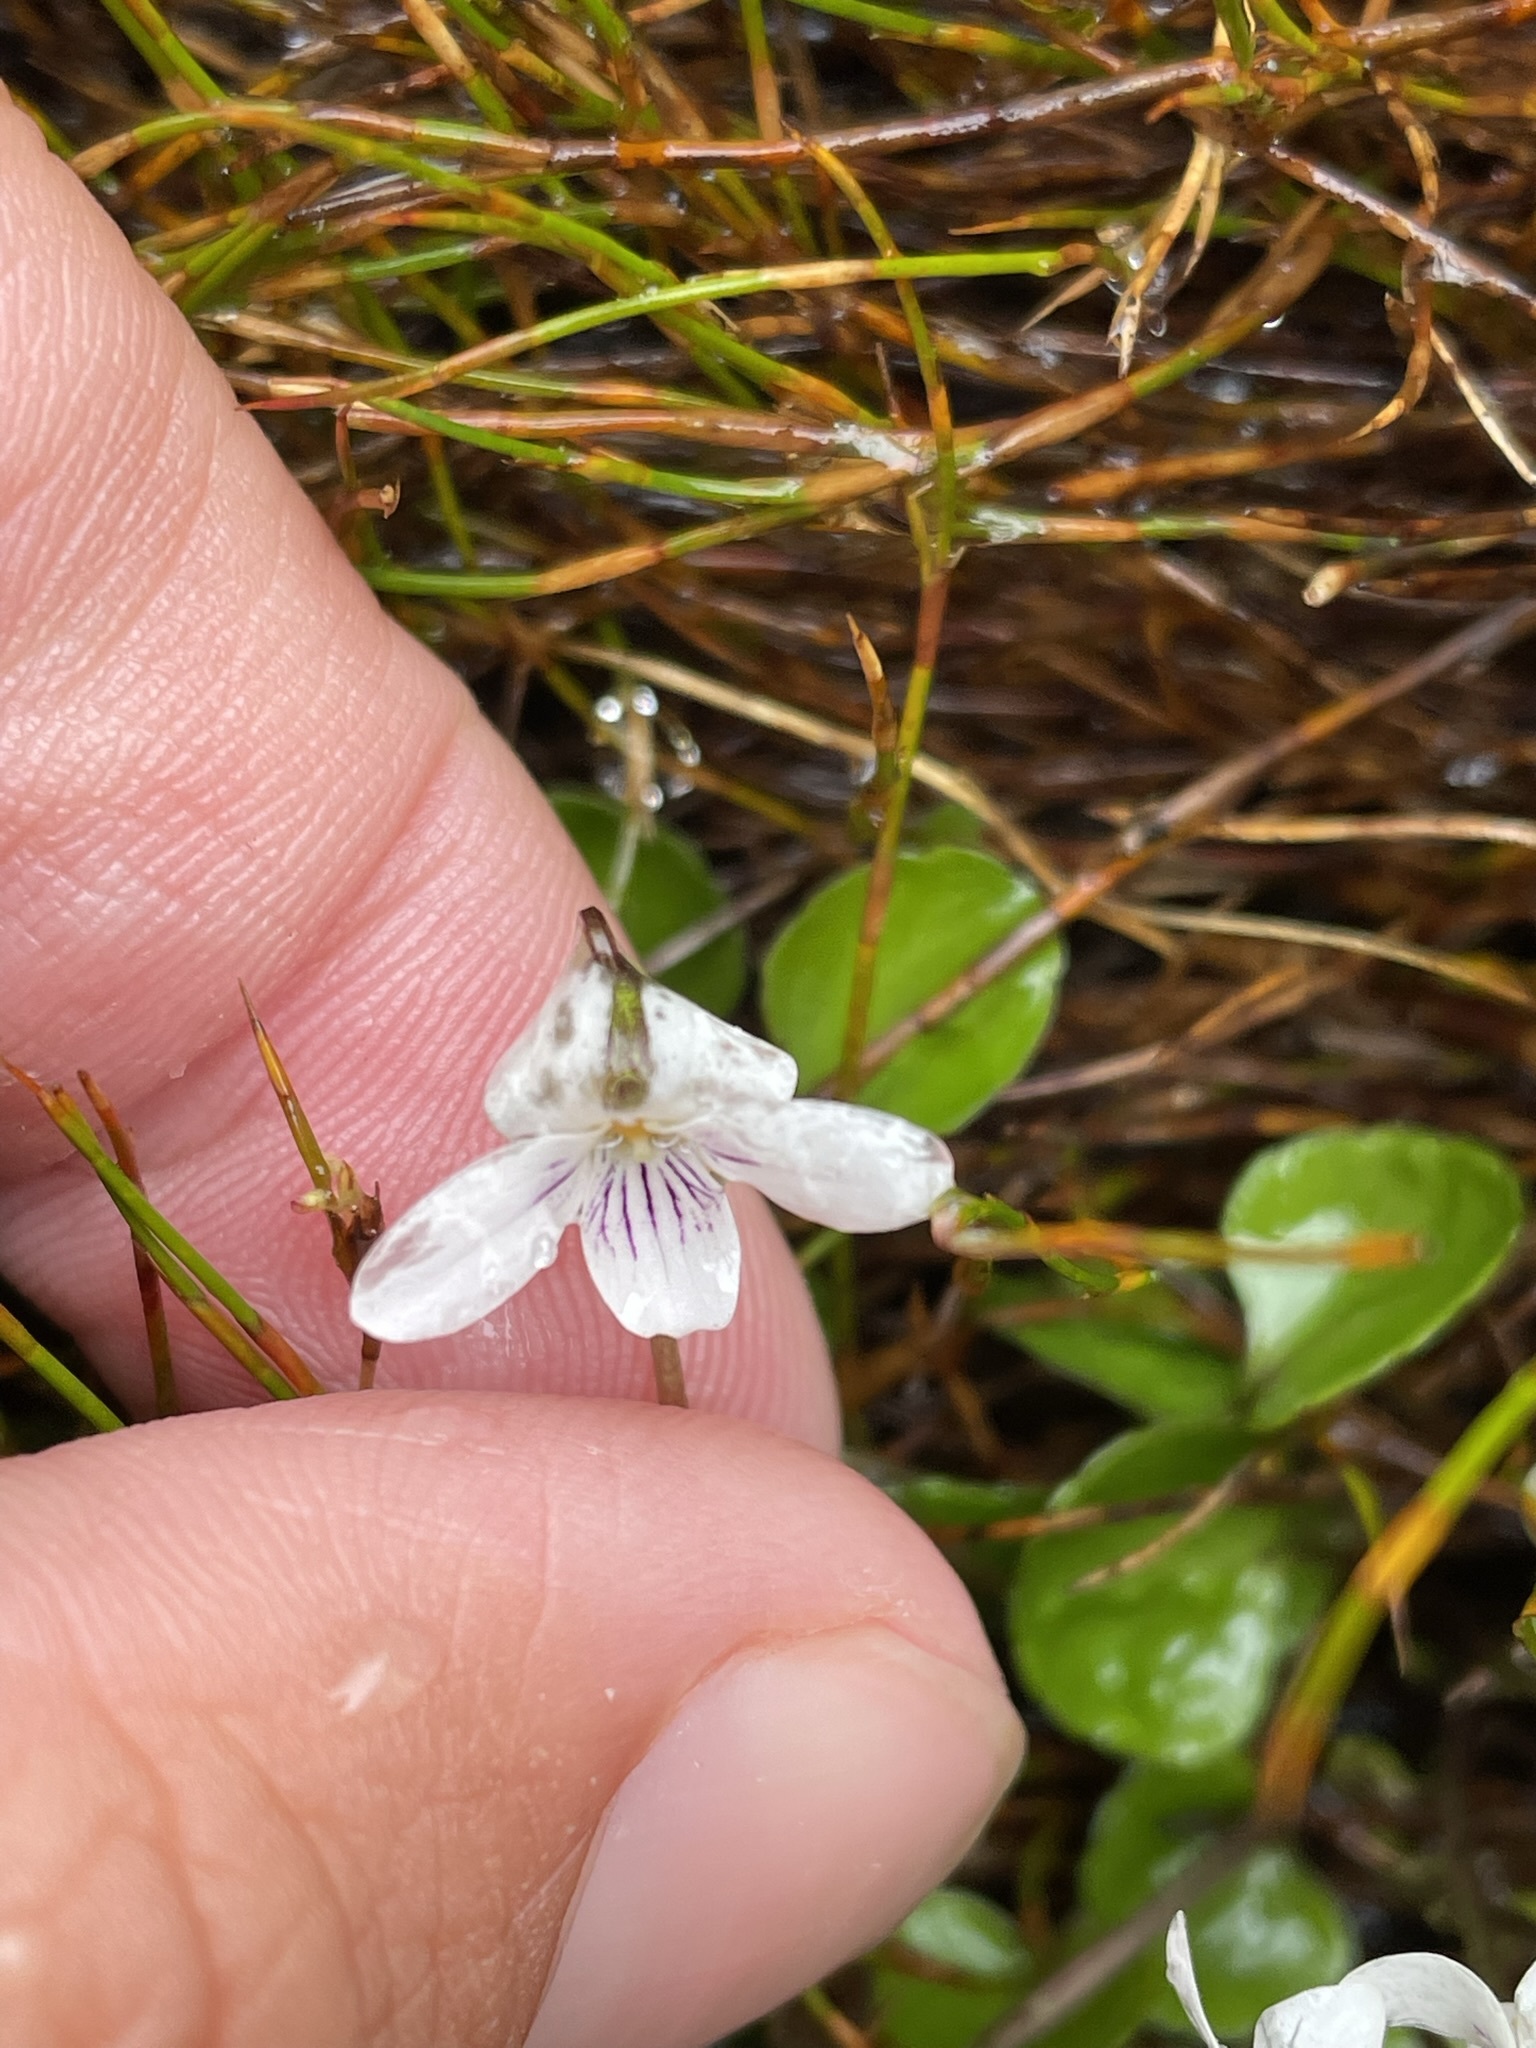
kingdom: Plantae
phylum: Tracheophyta
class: Magnoliopsida
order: Malpighiales
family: Violaceae
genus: Viola
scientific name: Viola cunninghamii
